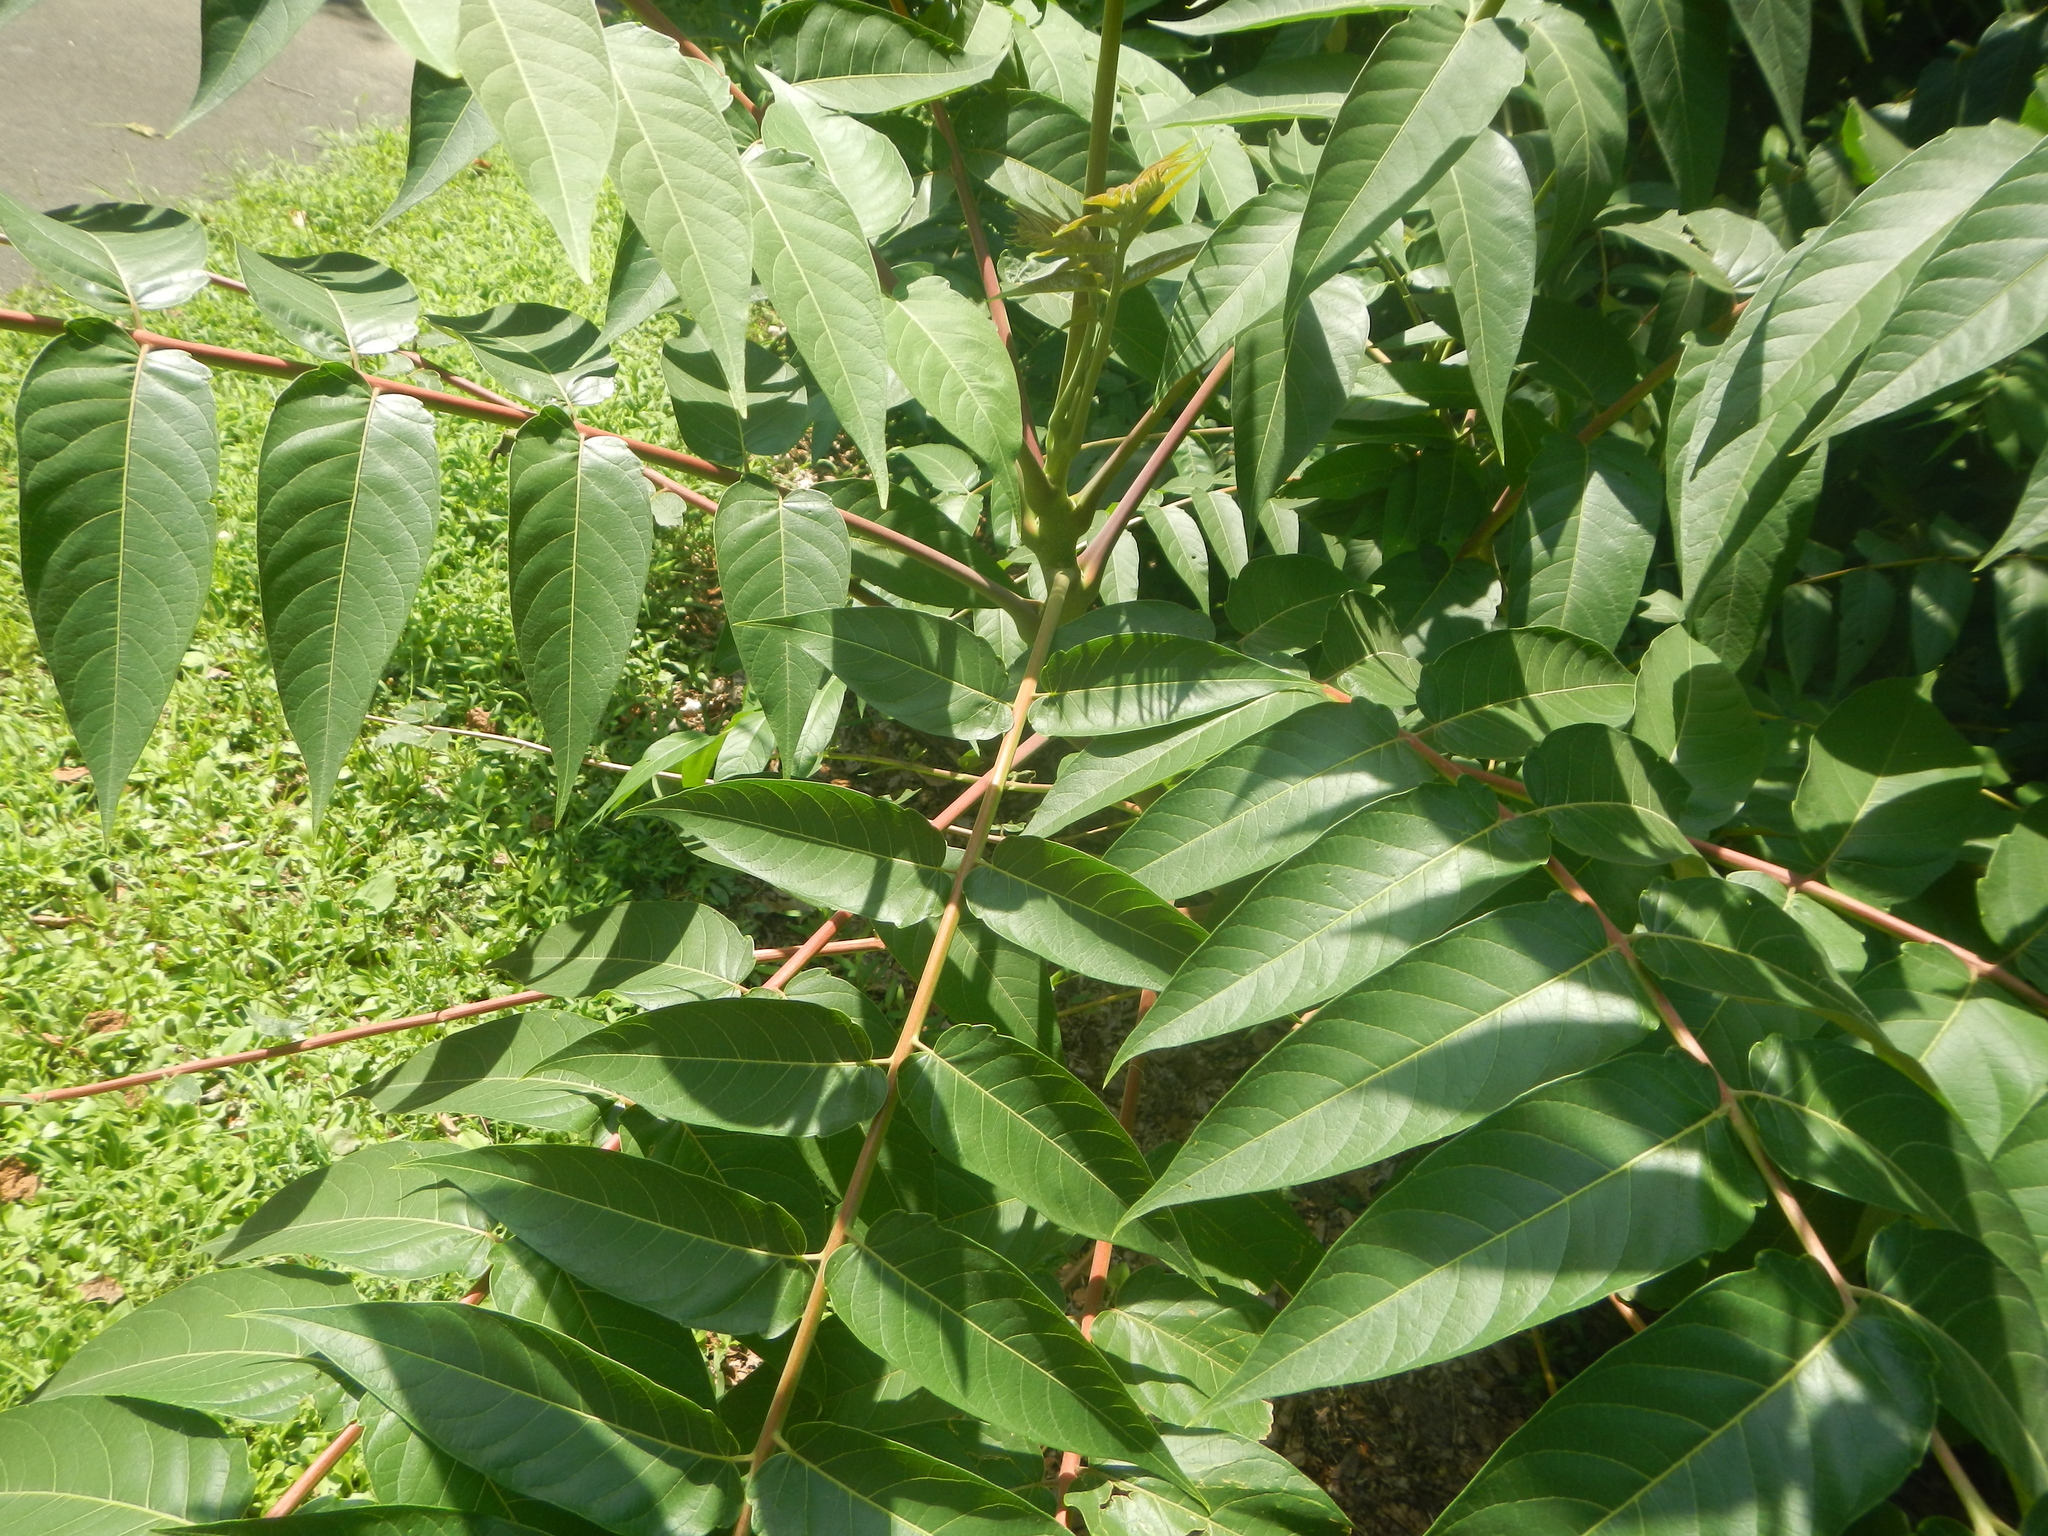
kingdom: Plantae
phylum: Tracheophyta
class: Magnoliopsida
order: Sapindales
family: Simaroubaceae
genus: Ailanthus
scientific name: Ailanthus altissima
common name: Tree-of-heaven
